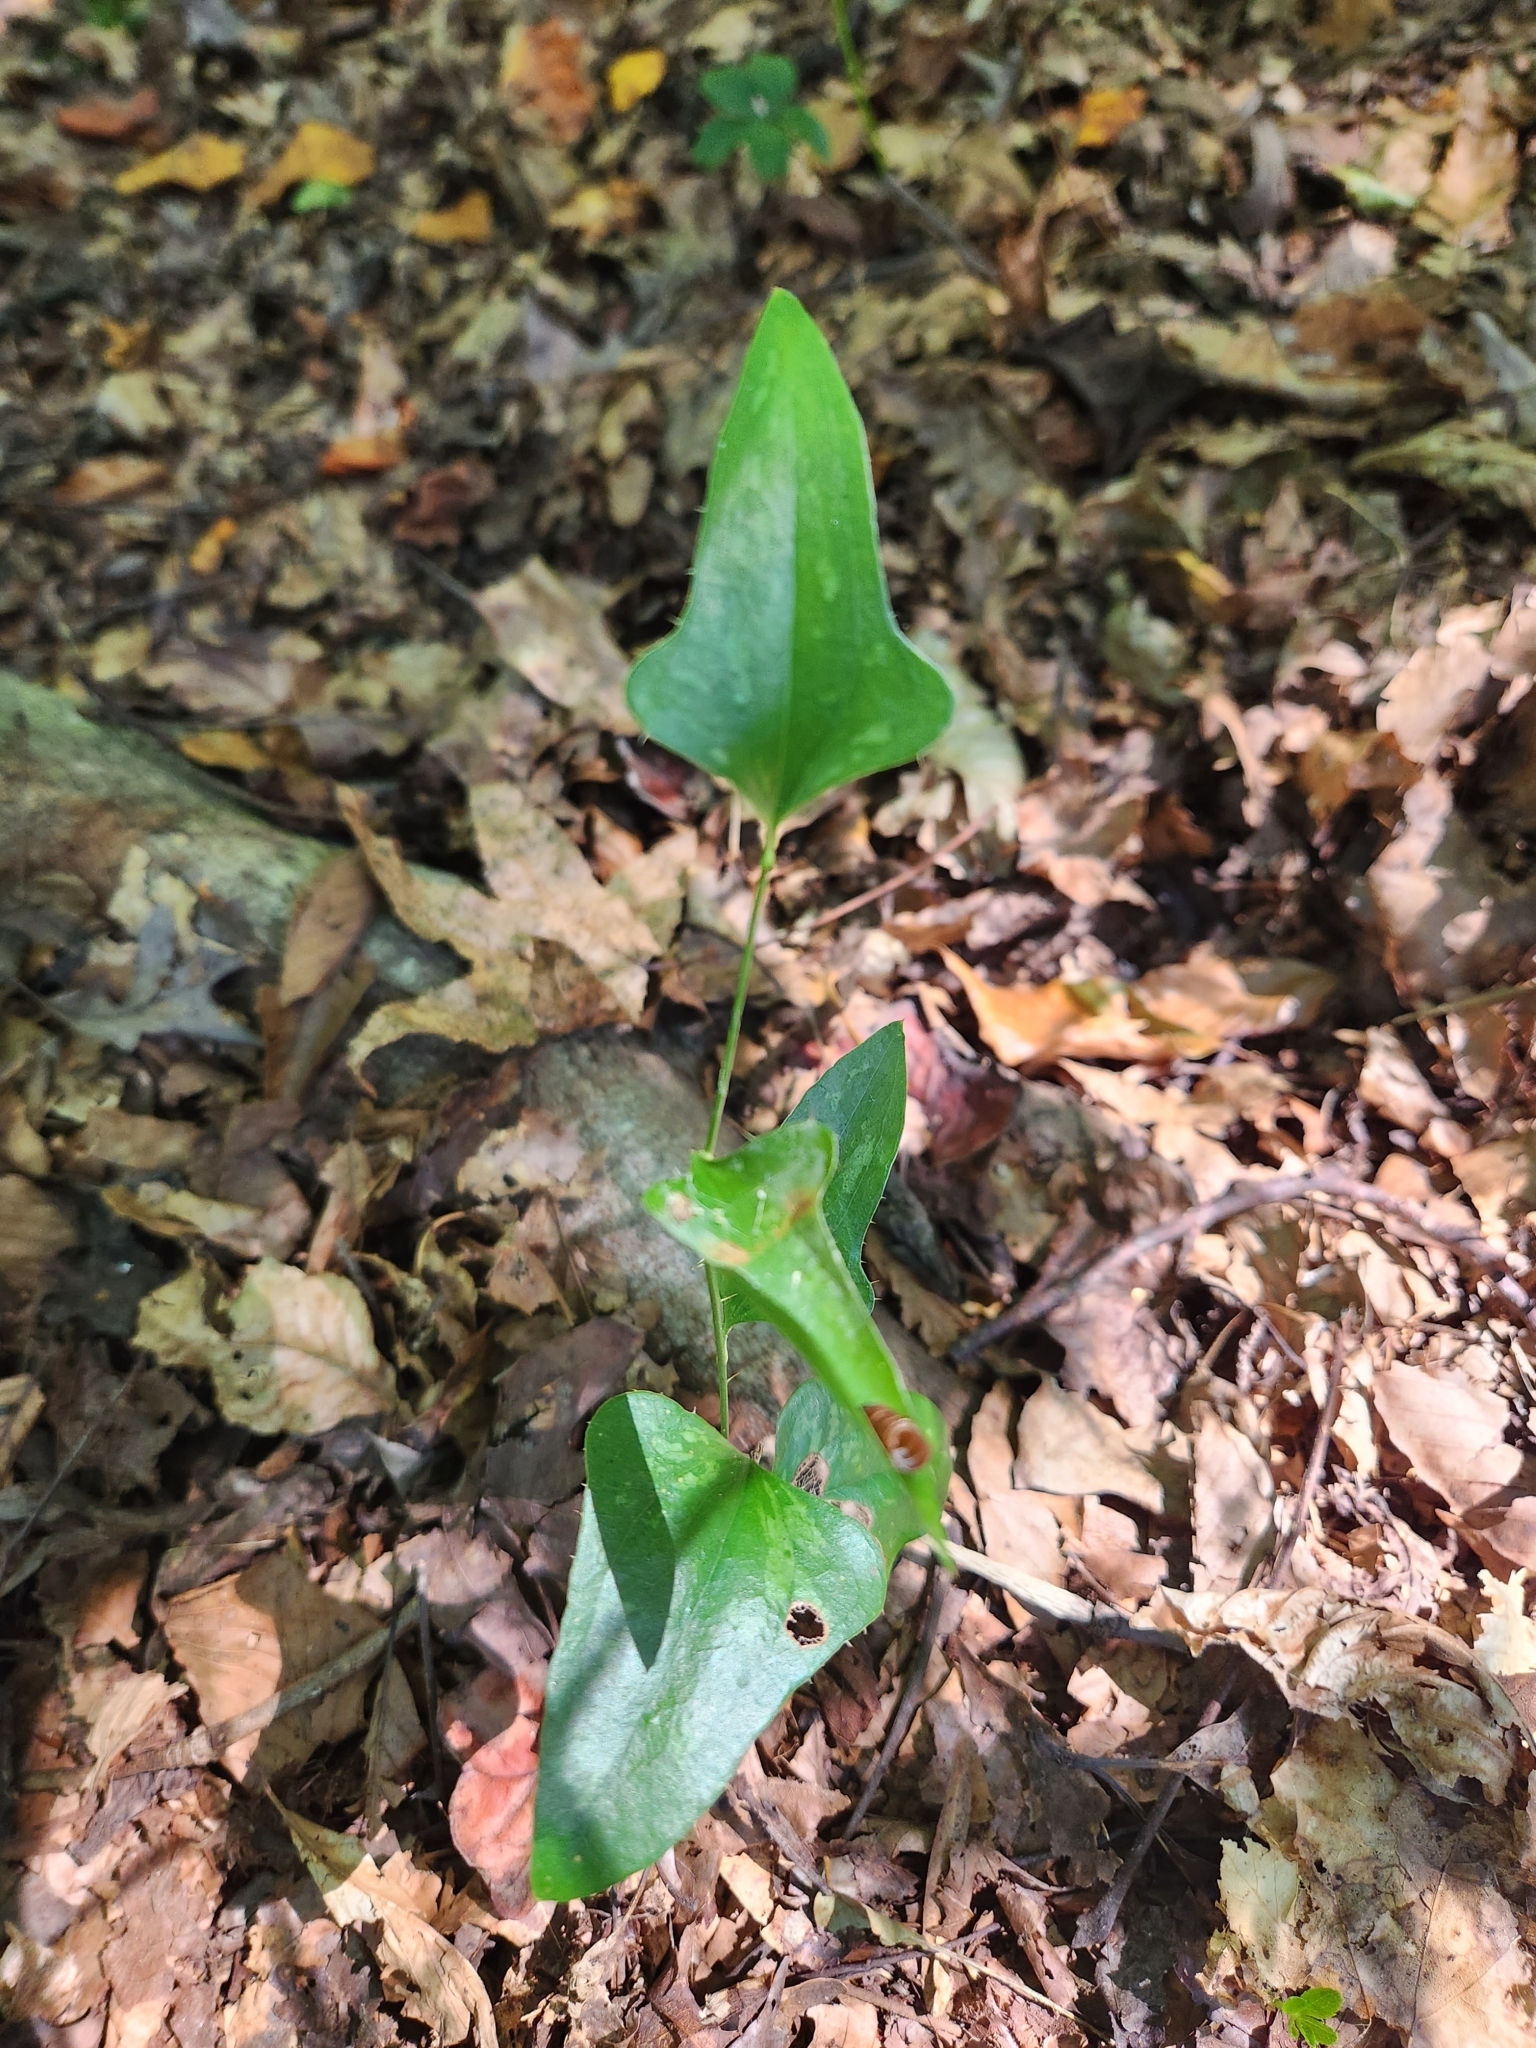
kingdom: Plantae
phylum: Tracheophyta
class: Liliopsida
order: Liliales
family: Smilacaceae
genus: Smilax
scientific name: Smilax bona-nox
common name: Catbrier
